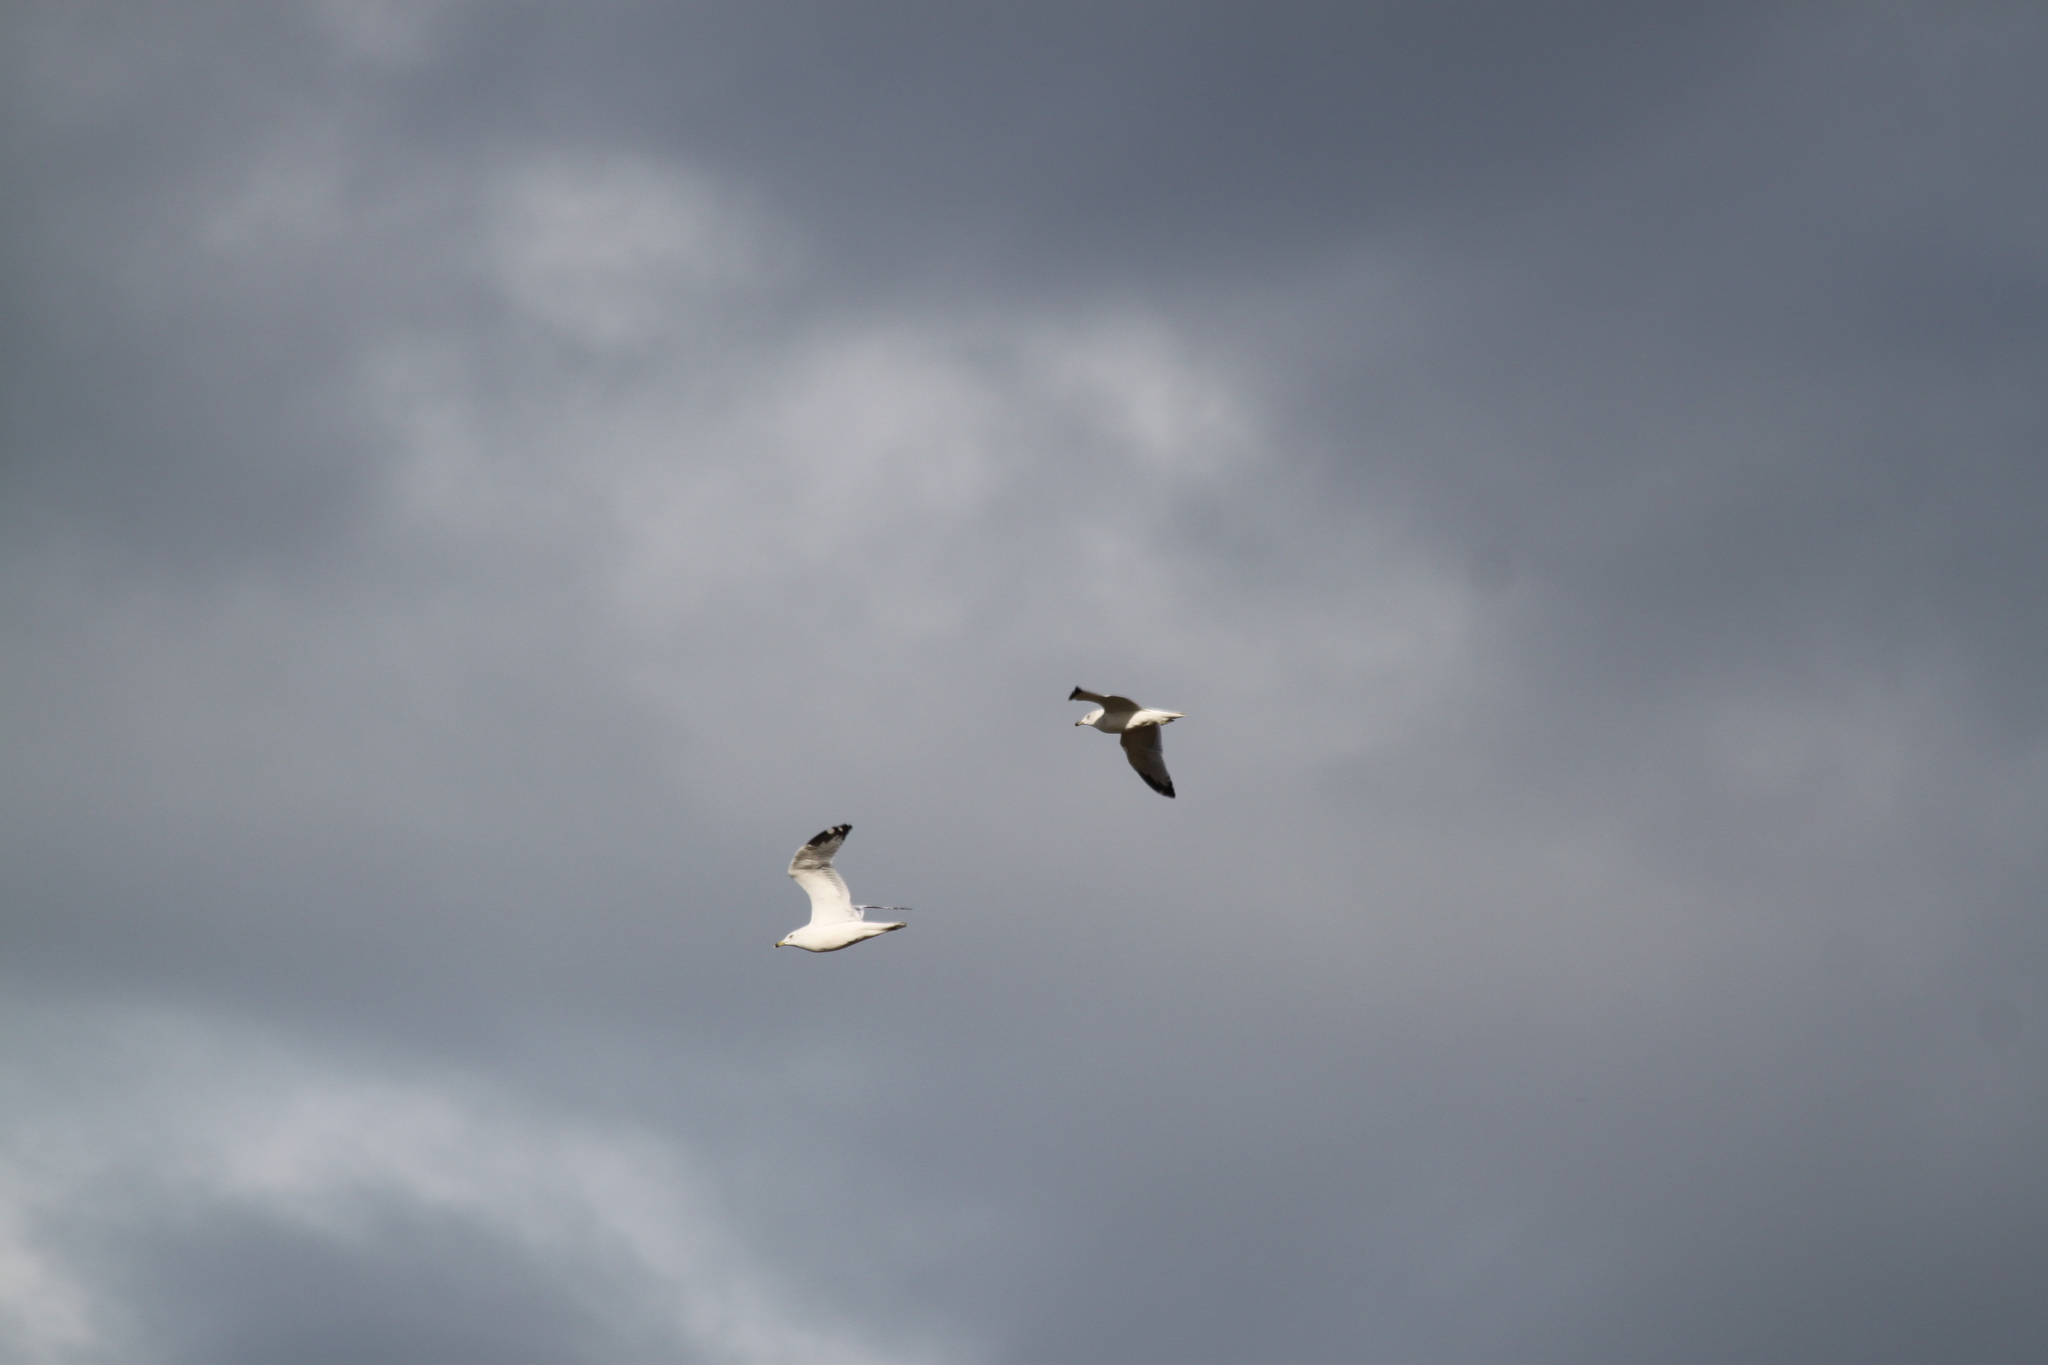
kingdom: Animalia
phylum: Chordata
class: Aves
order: Charadriiformes
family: Laridae
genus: Larus
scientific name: Larus delawarensis
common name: Ring-billed gull
